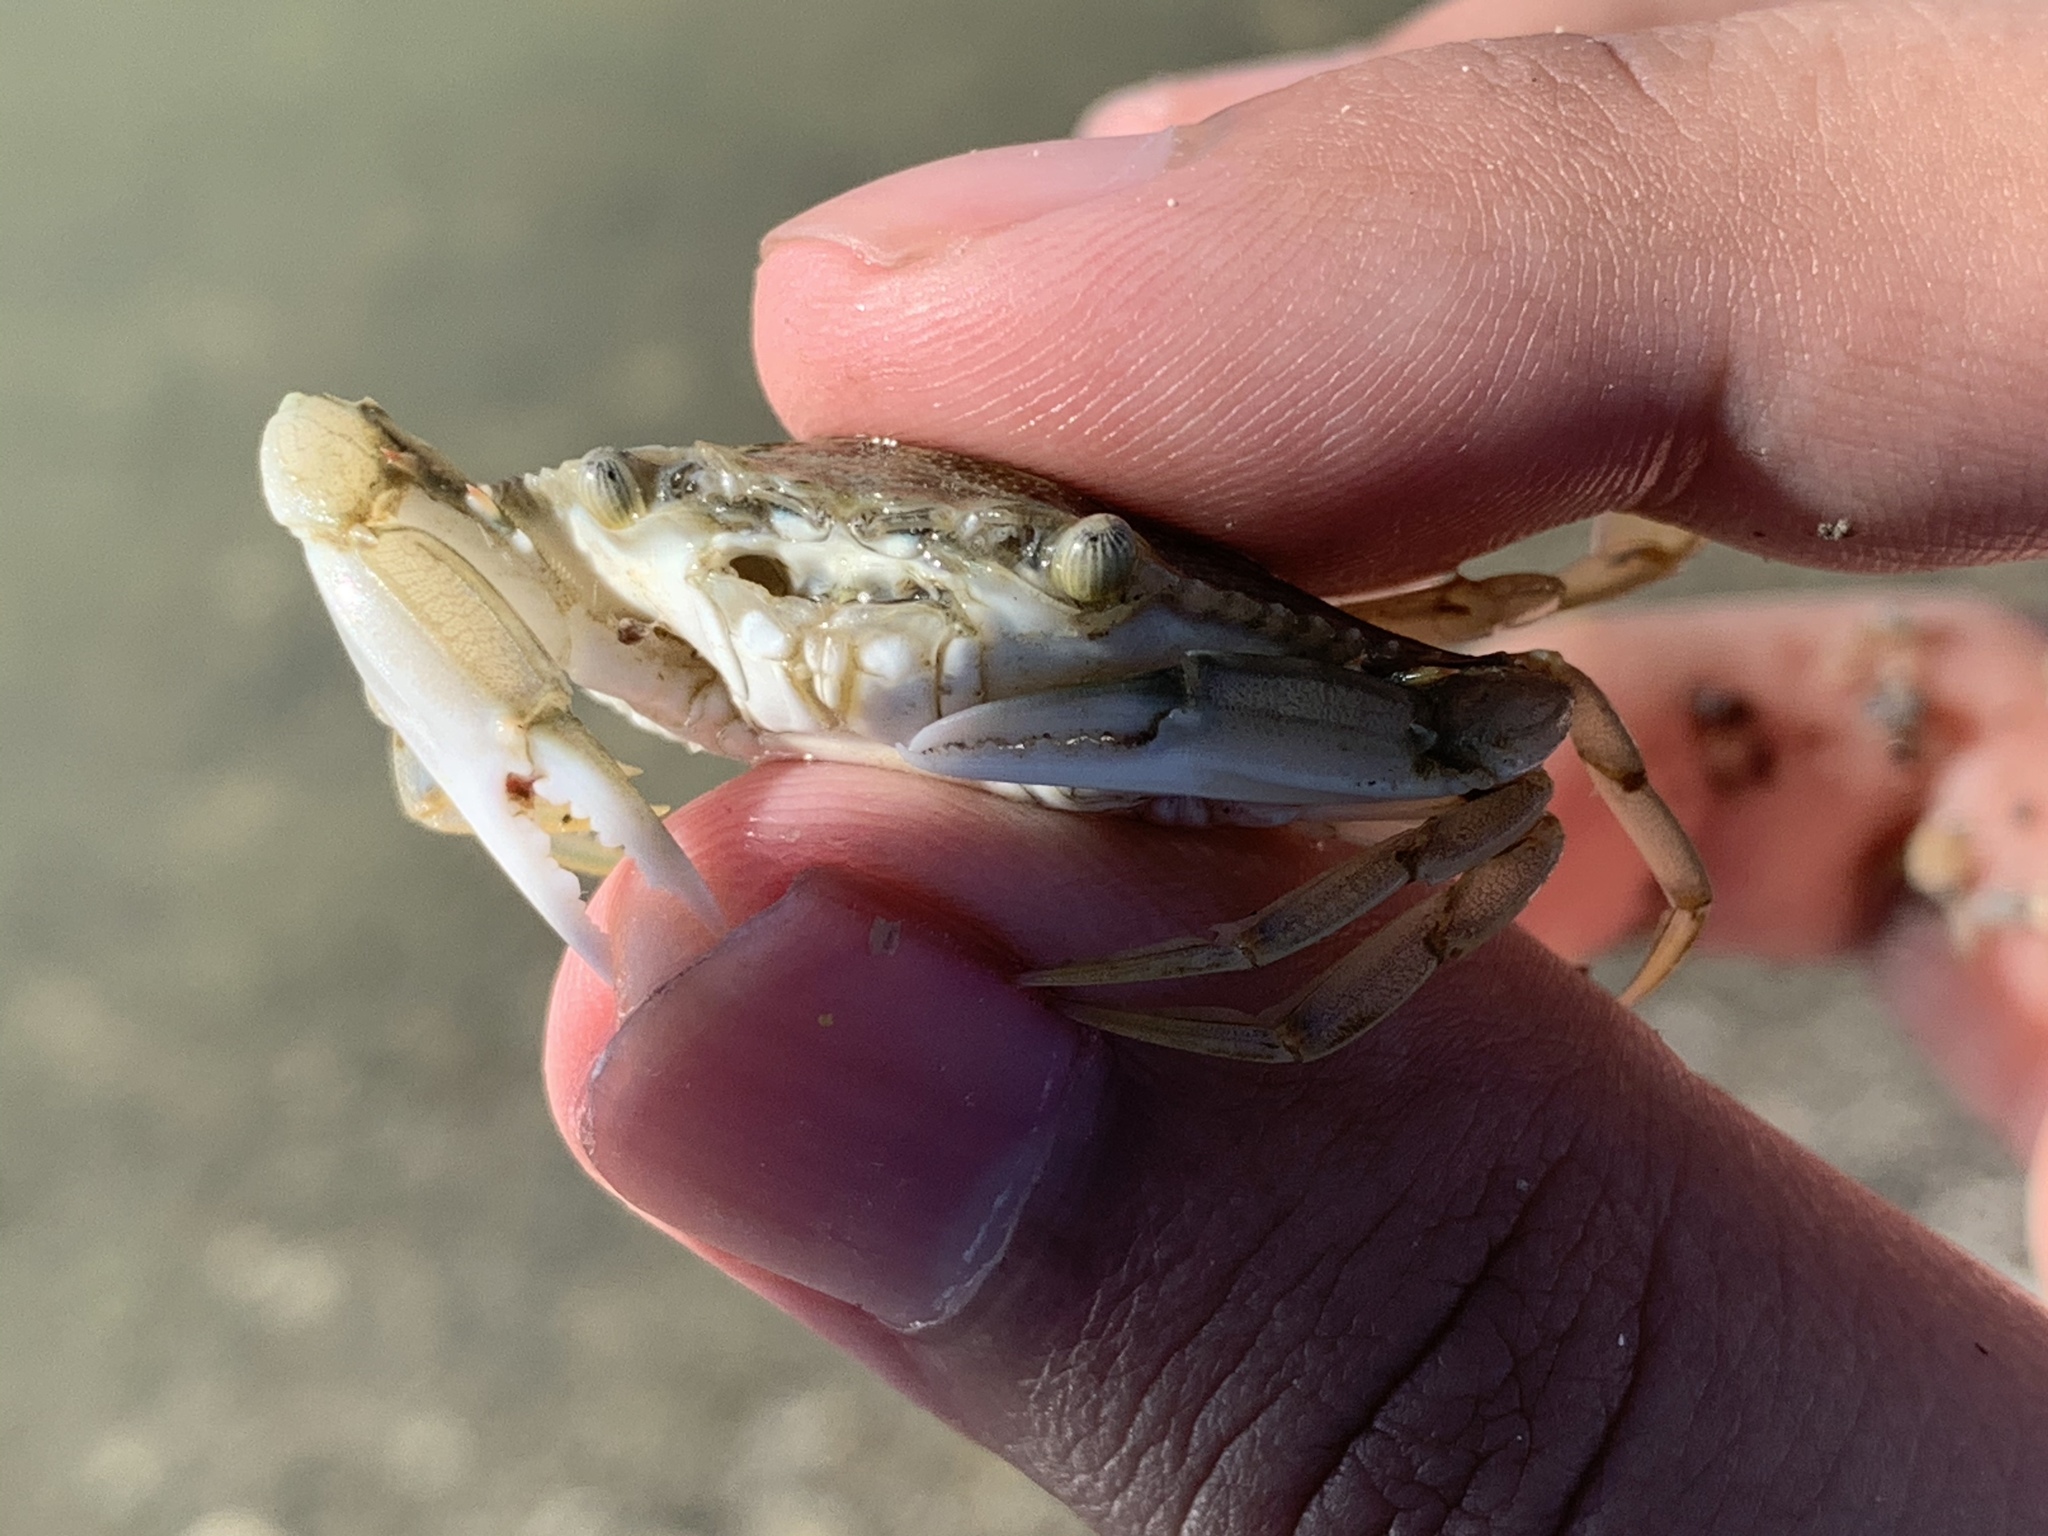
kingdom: Animalia
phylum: Arthropoda
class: Malacostraca
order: Decapoda
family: Portunidae
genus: Callinectes
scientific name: Callinectes sapidus
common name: Blue crab
